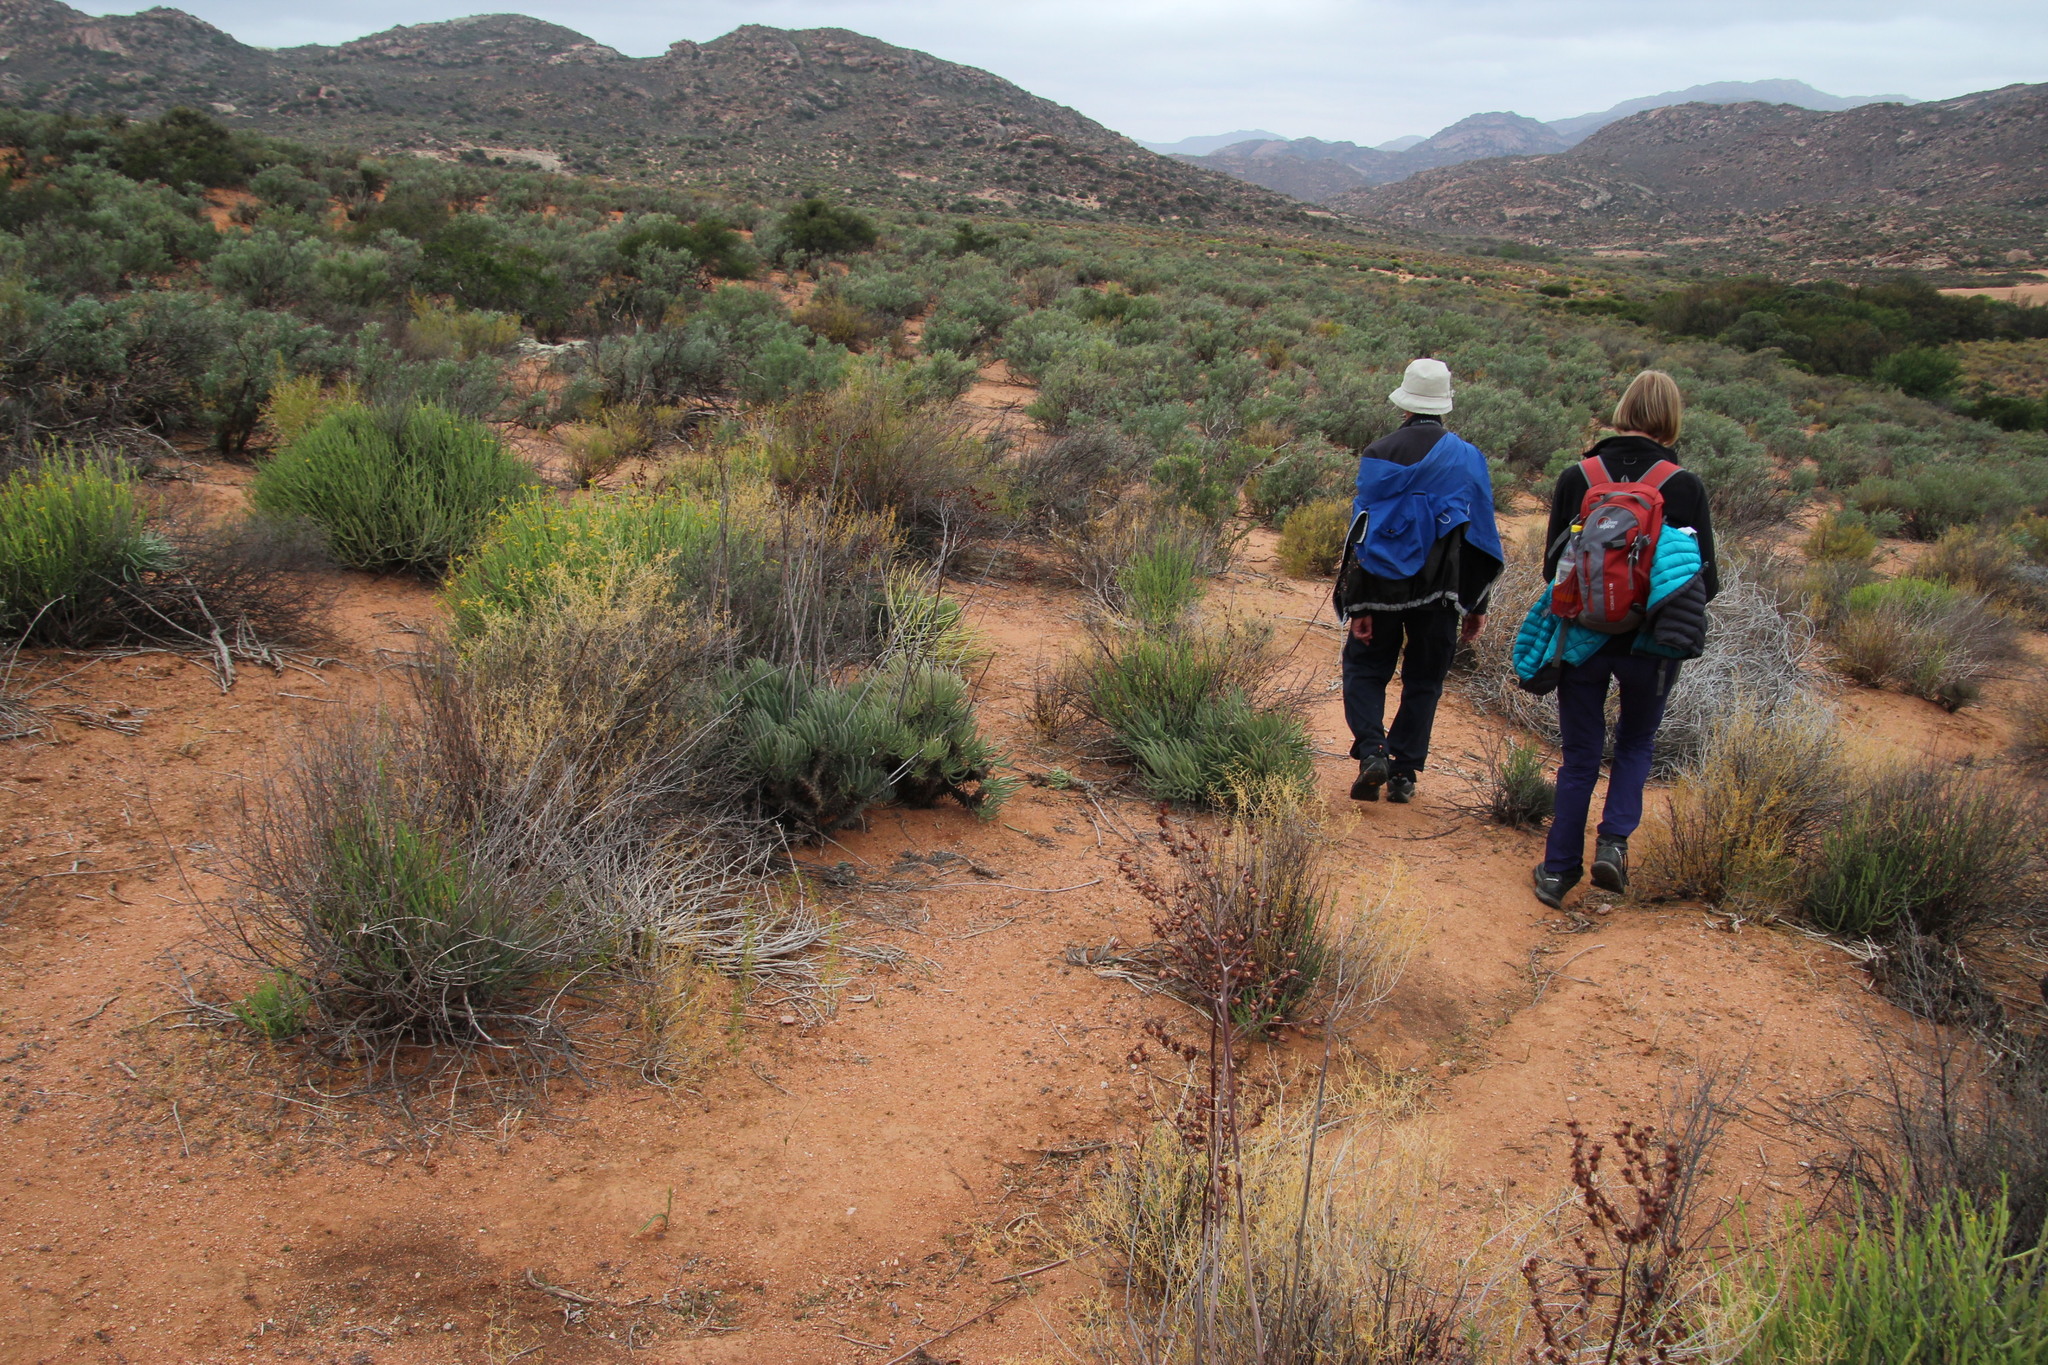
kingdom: Plantae
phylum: Tracheophyta
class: Magnoliopsida
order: Saxifragales
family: Crassulaceae
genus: Tylecodon
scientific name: Tylecodon wallichii
